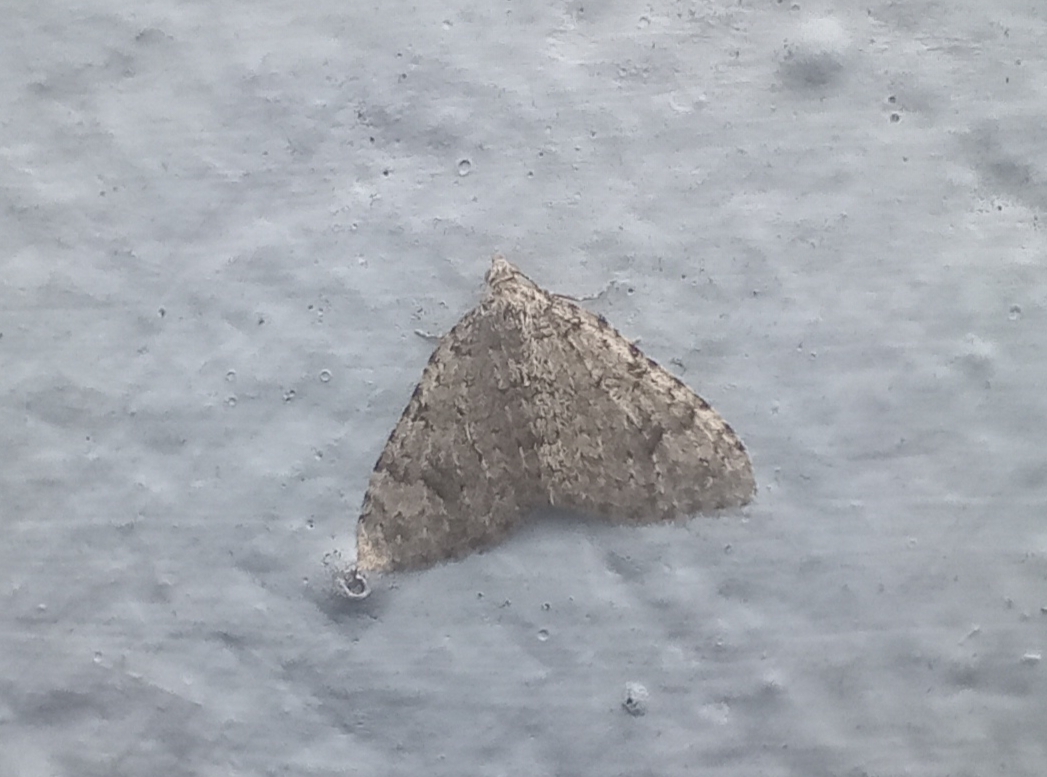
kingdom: Animalia
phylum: Arthropoda
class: Insecta
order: Lepidoptera
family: Geometridae
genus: Helastia
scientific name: Helastia cinerearia
